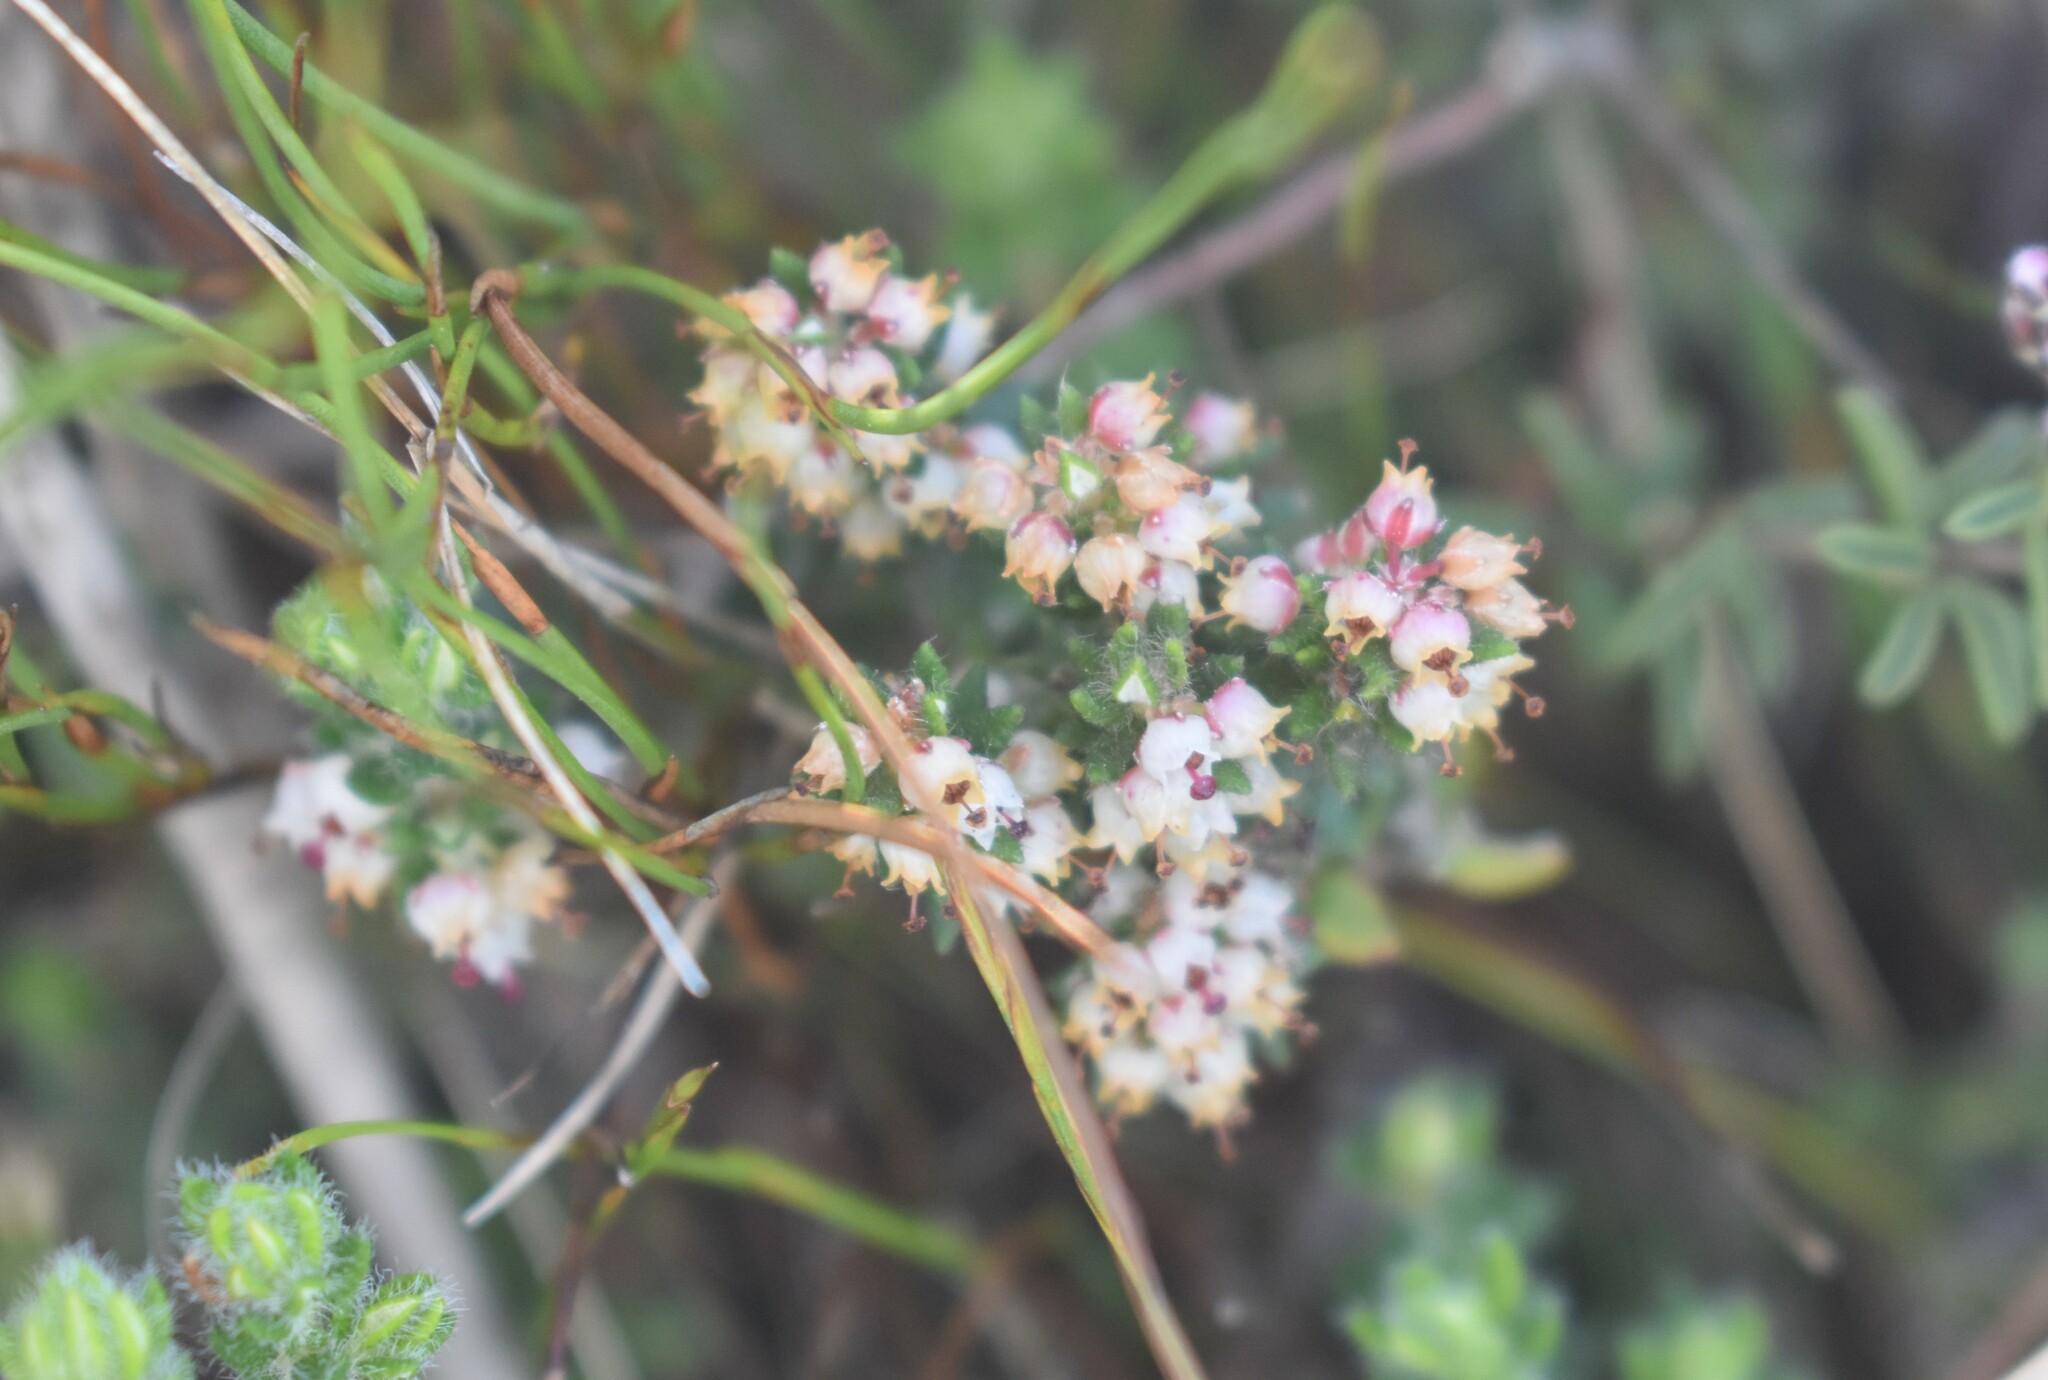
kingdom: Plantae
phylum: Tracheophyta
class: Magnoliopsida
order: Ericales
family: Ericaceae
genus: Erica
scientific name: Erica cordata
